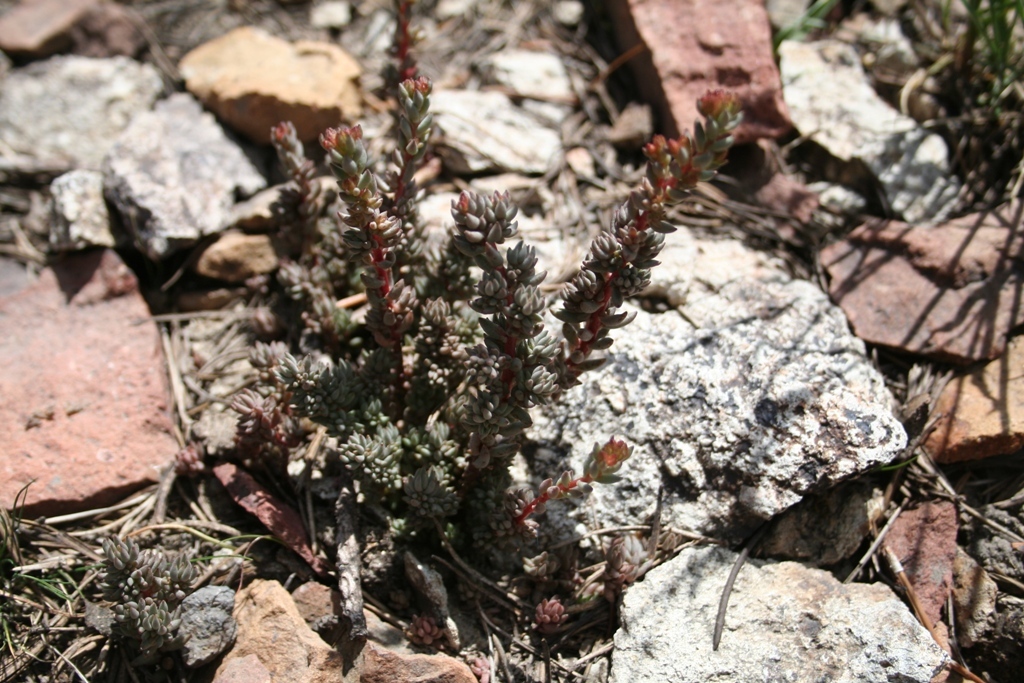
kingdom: Plantae
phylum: Tracheophyta
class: Magnoliopsida
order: Saxifragales
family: Crassulaceae
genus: Sedum
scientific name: Sedum
